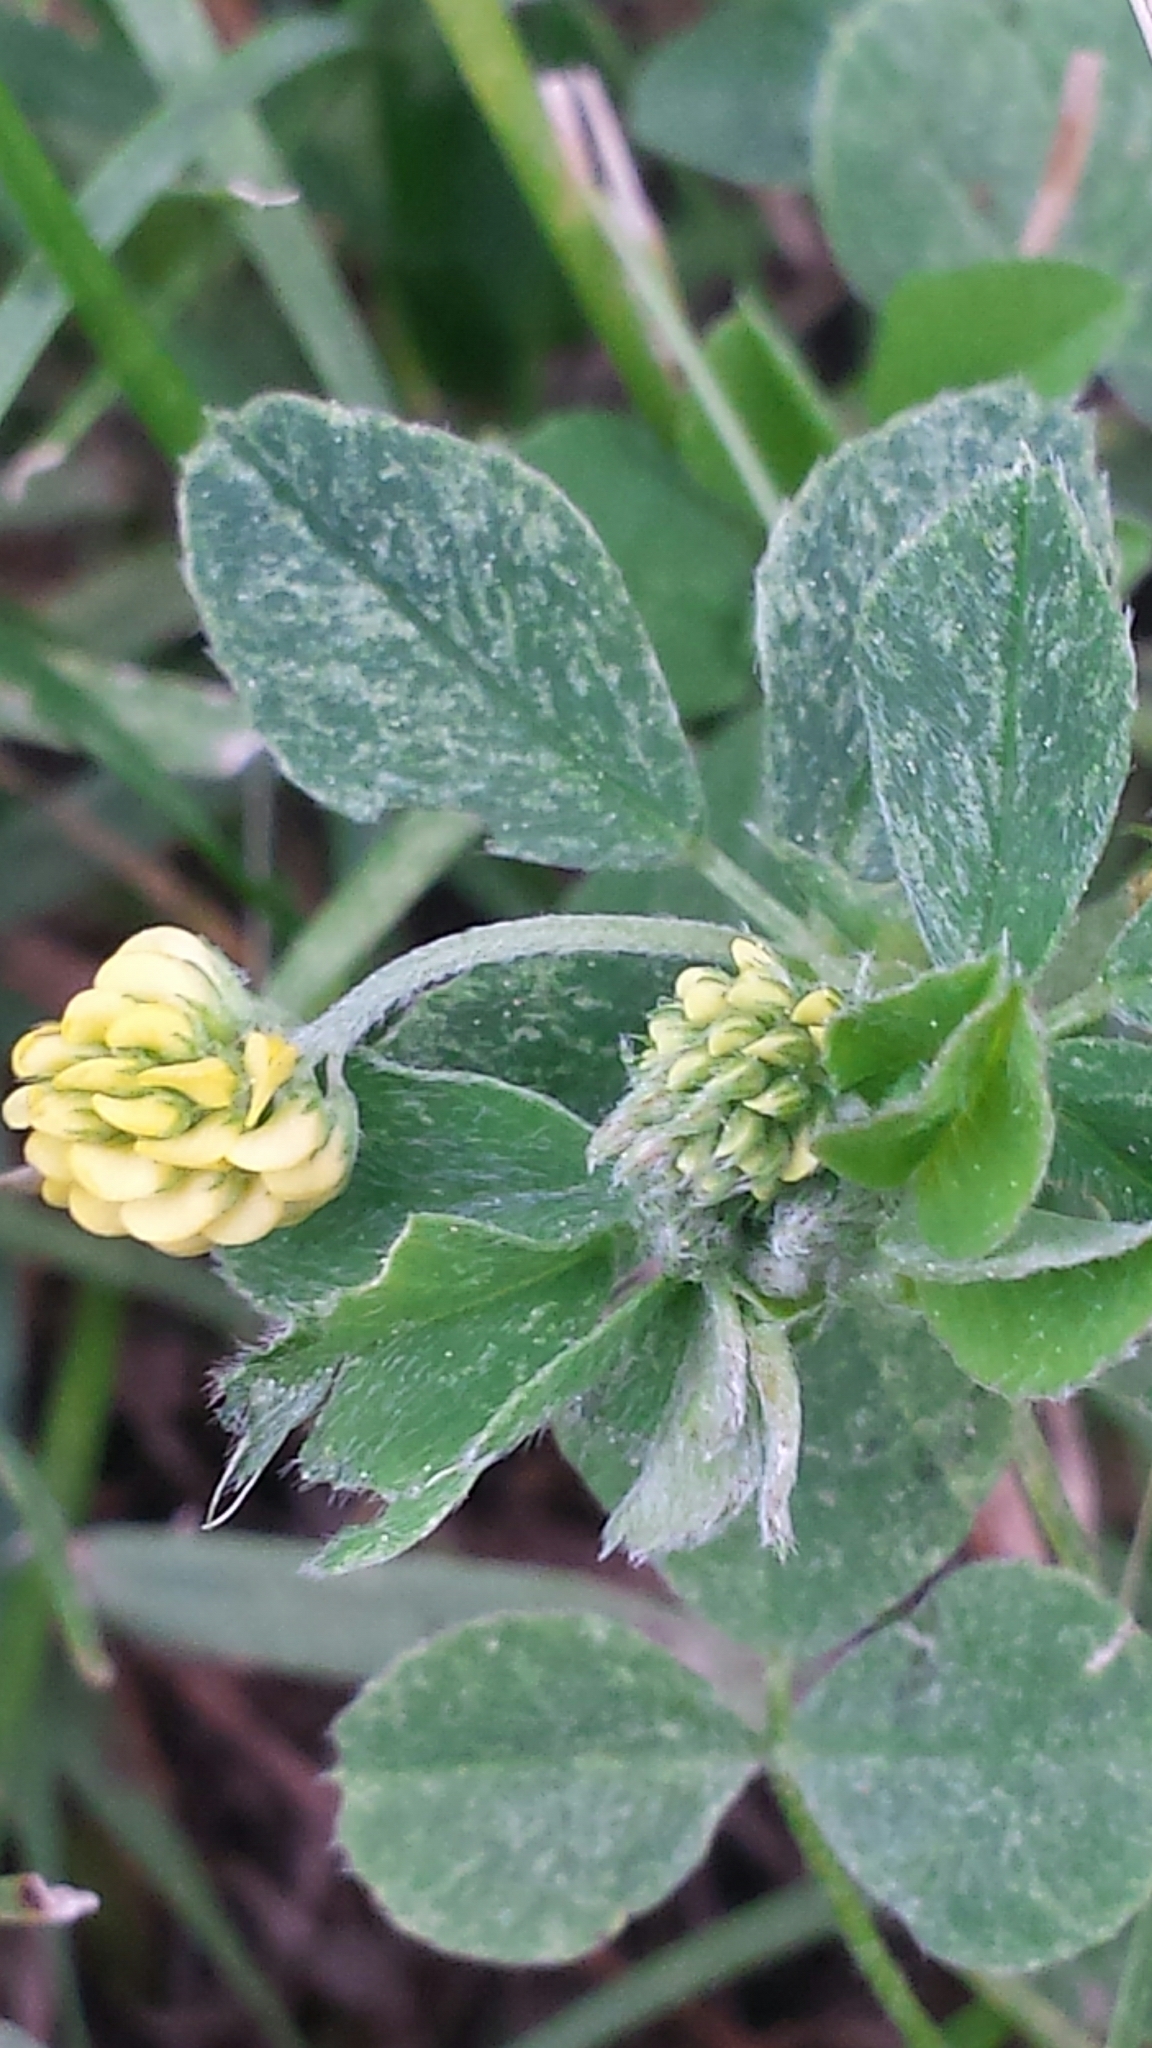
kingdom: Plantae
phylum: Tracheophyta
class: Magnoliopsida
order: Fabales
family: Fabaceae
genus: Medicago
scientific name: Medicago lupulina
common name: Black medick
